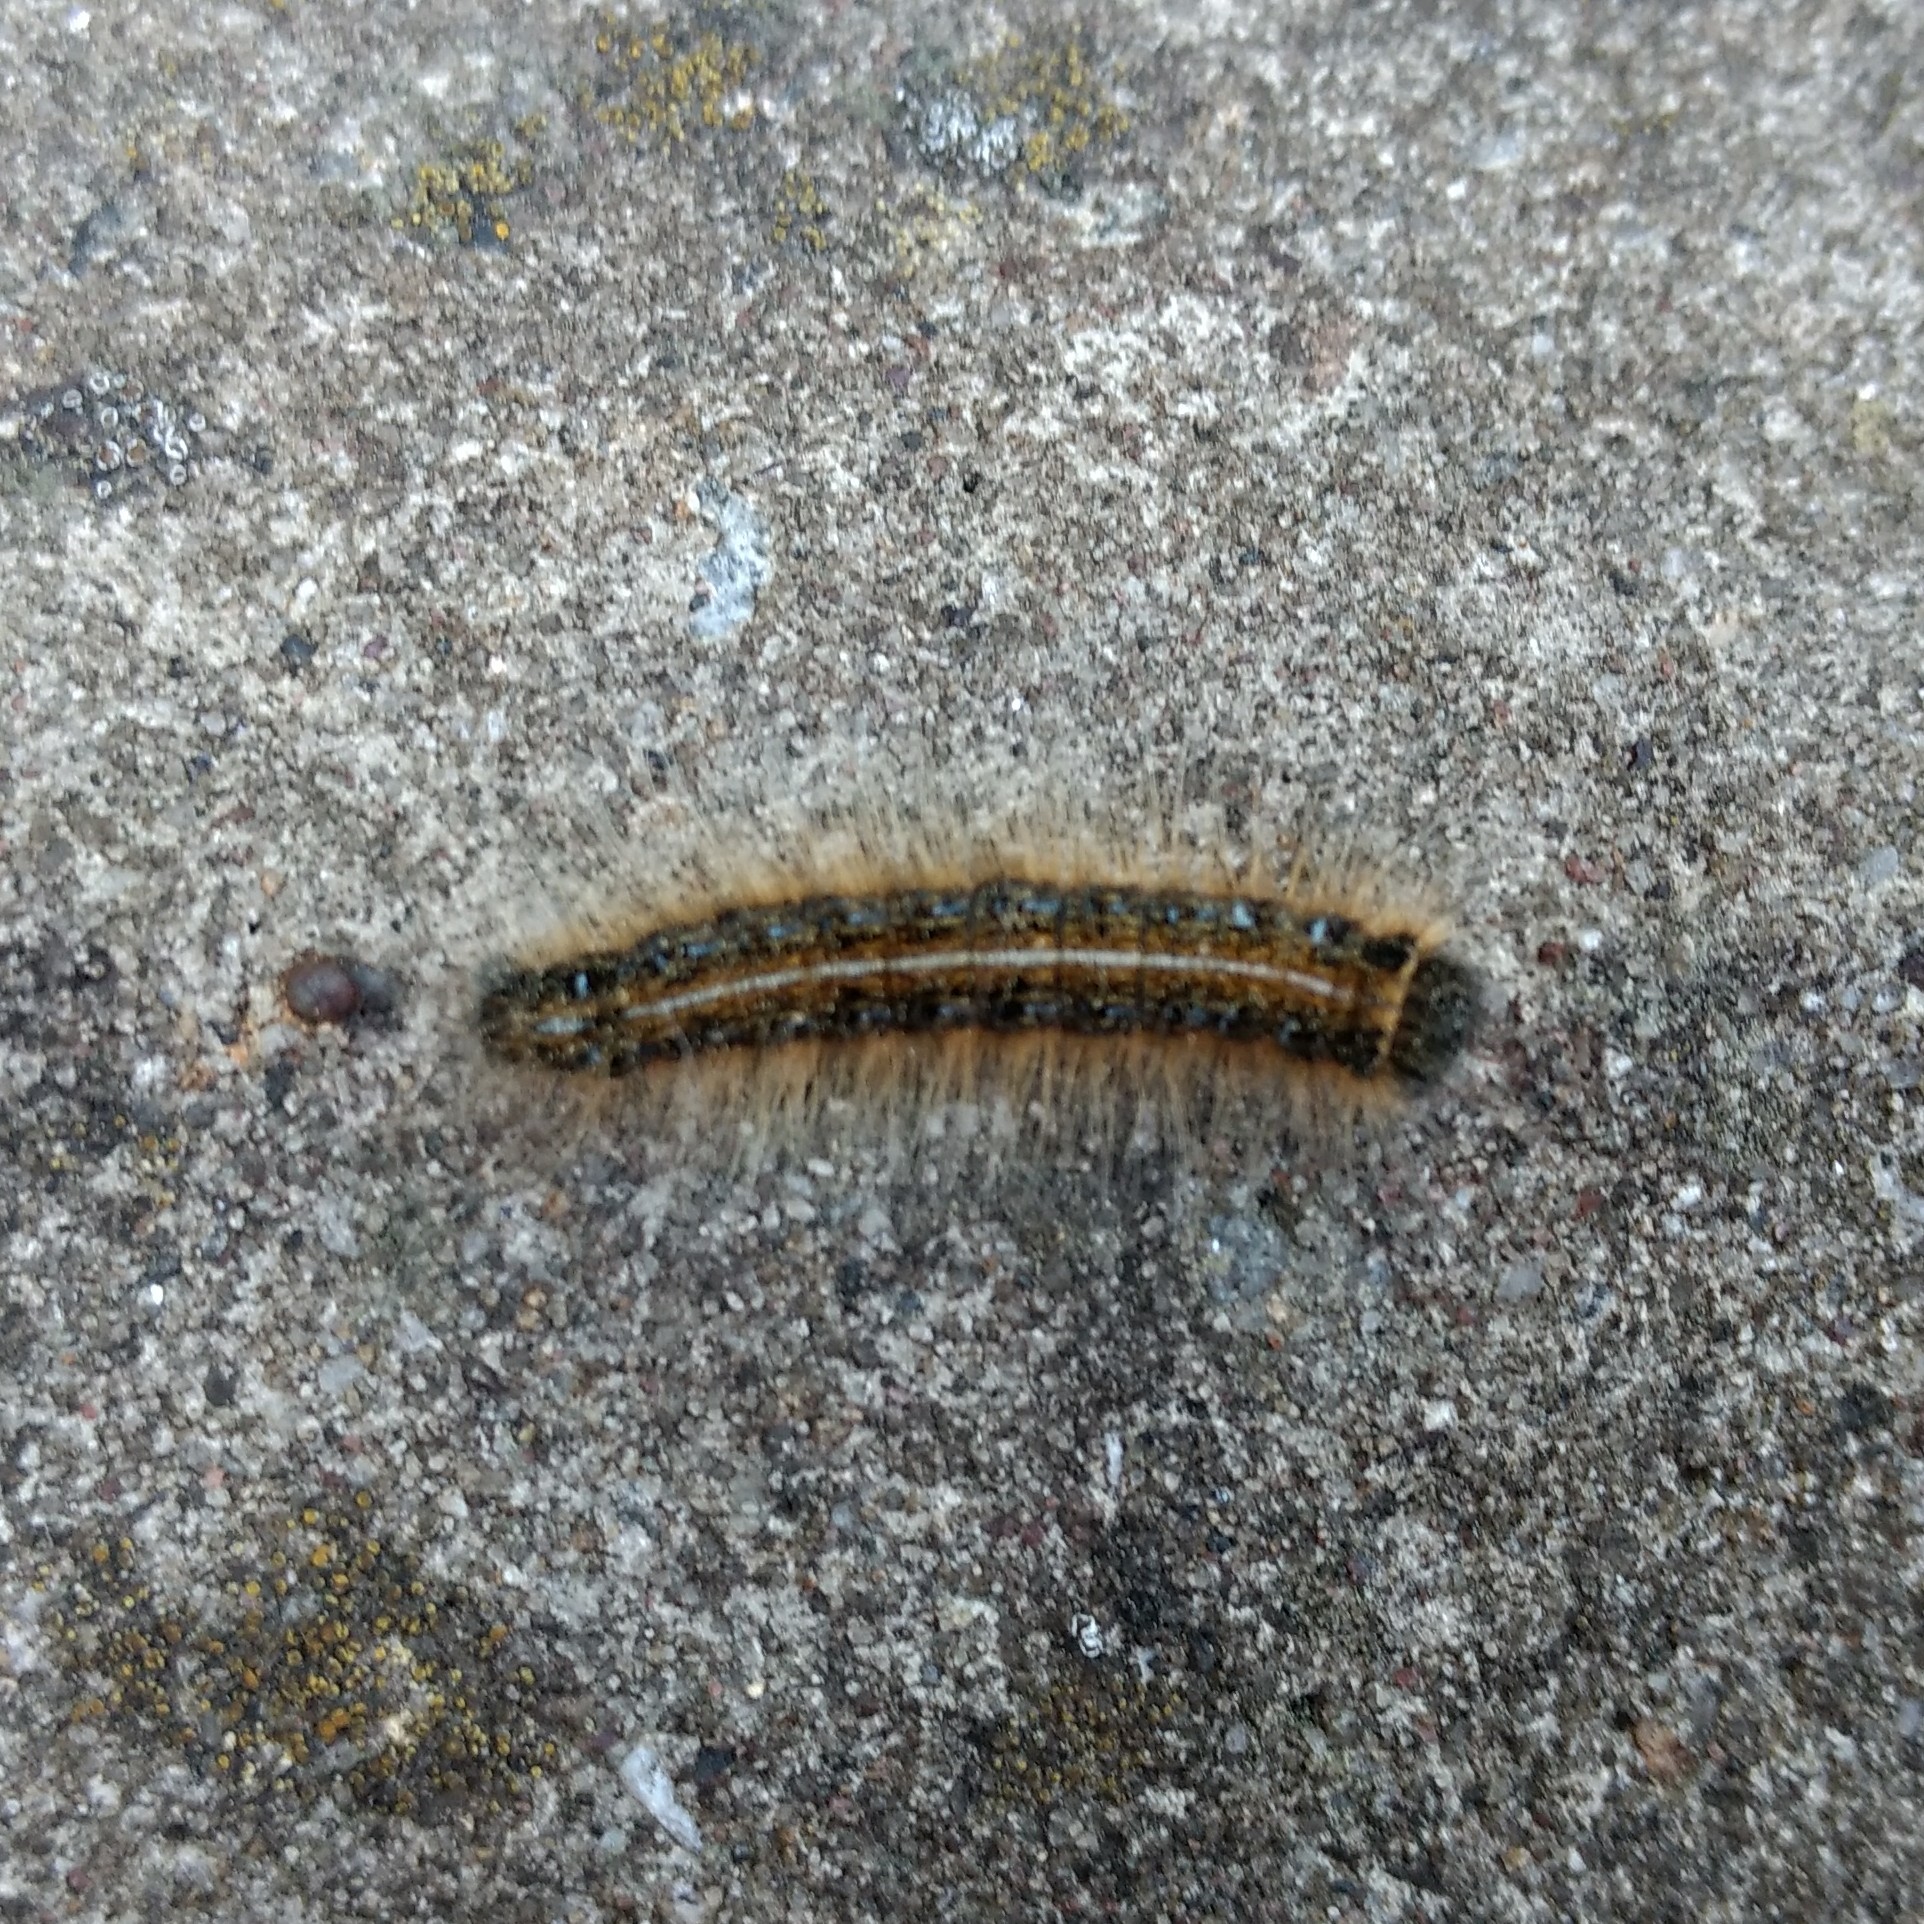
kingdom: Animalia
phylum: Arthropoda
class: Insecta
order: Lepidoptera
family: Lasiocampidae
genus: Malacosoma
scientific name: Malacosoma americana
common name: Eastern tent caterpillar moth
